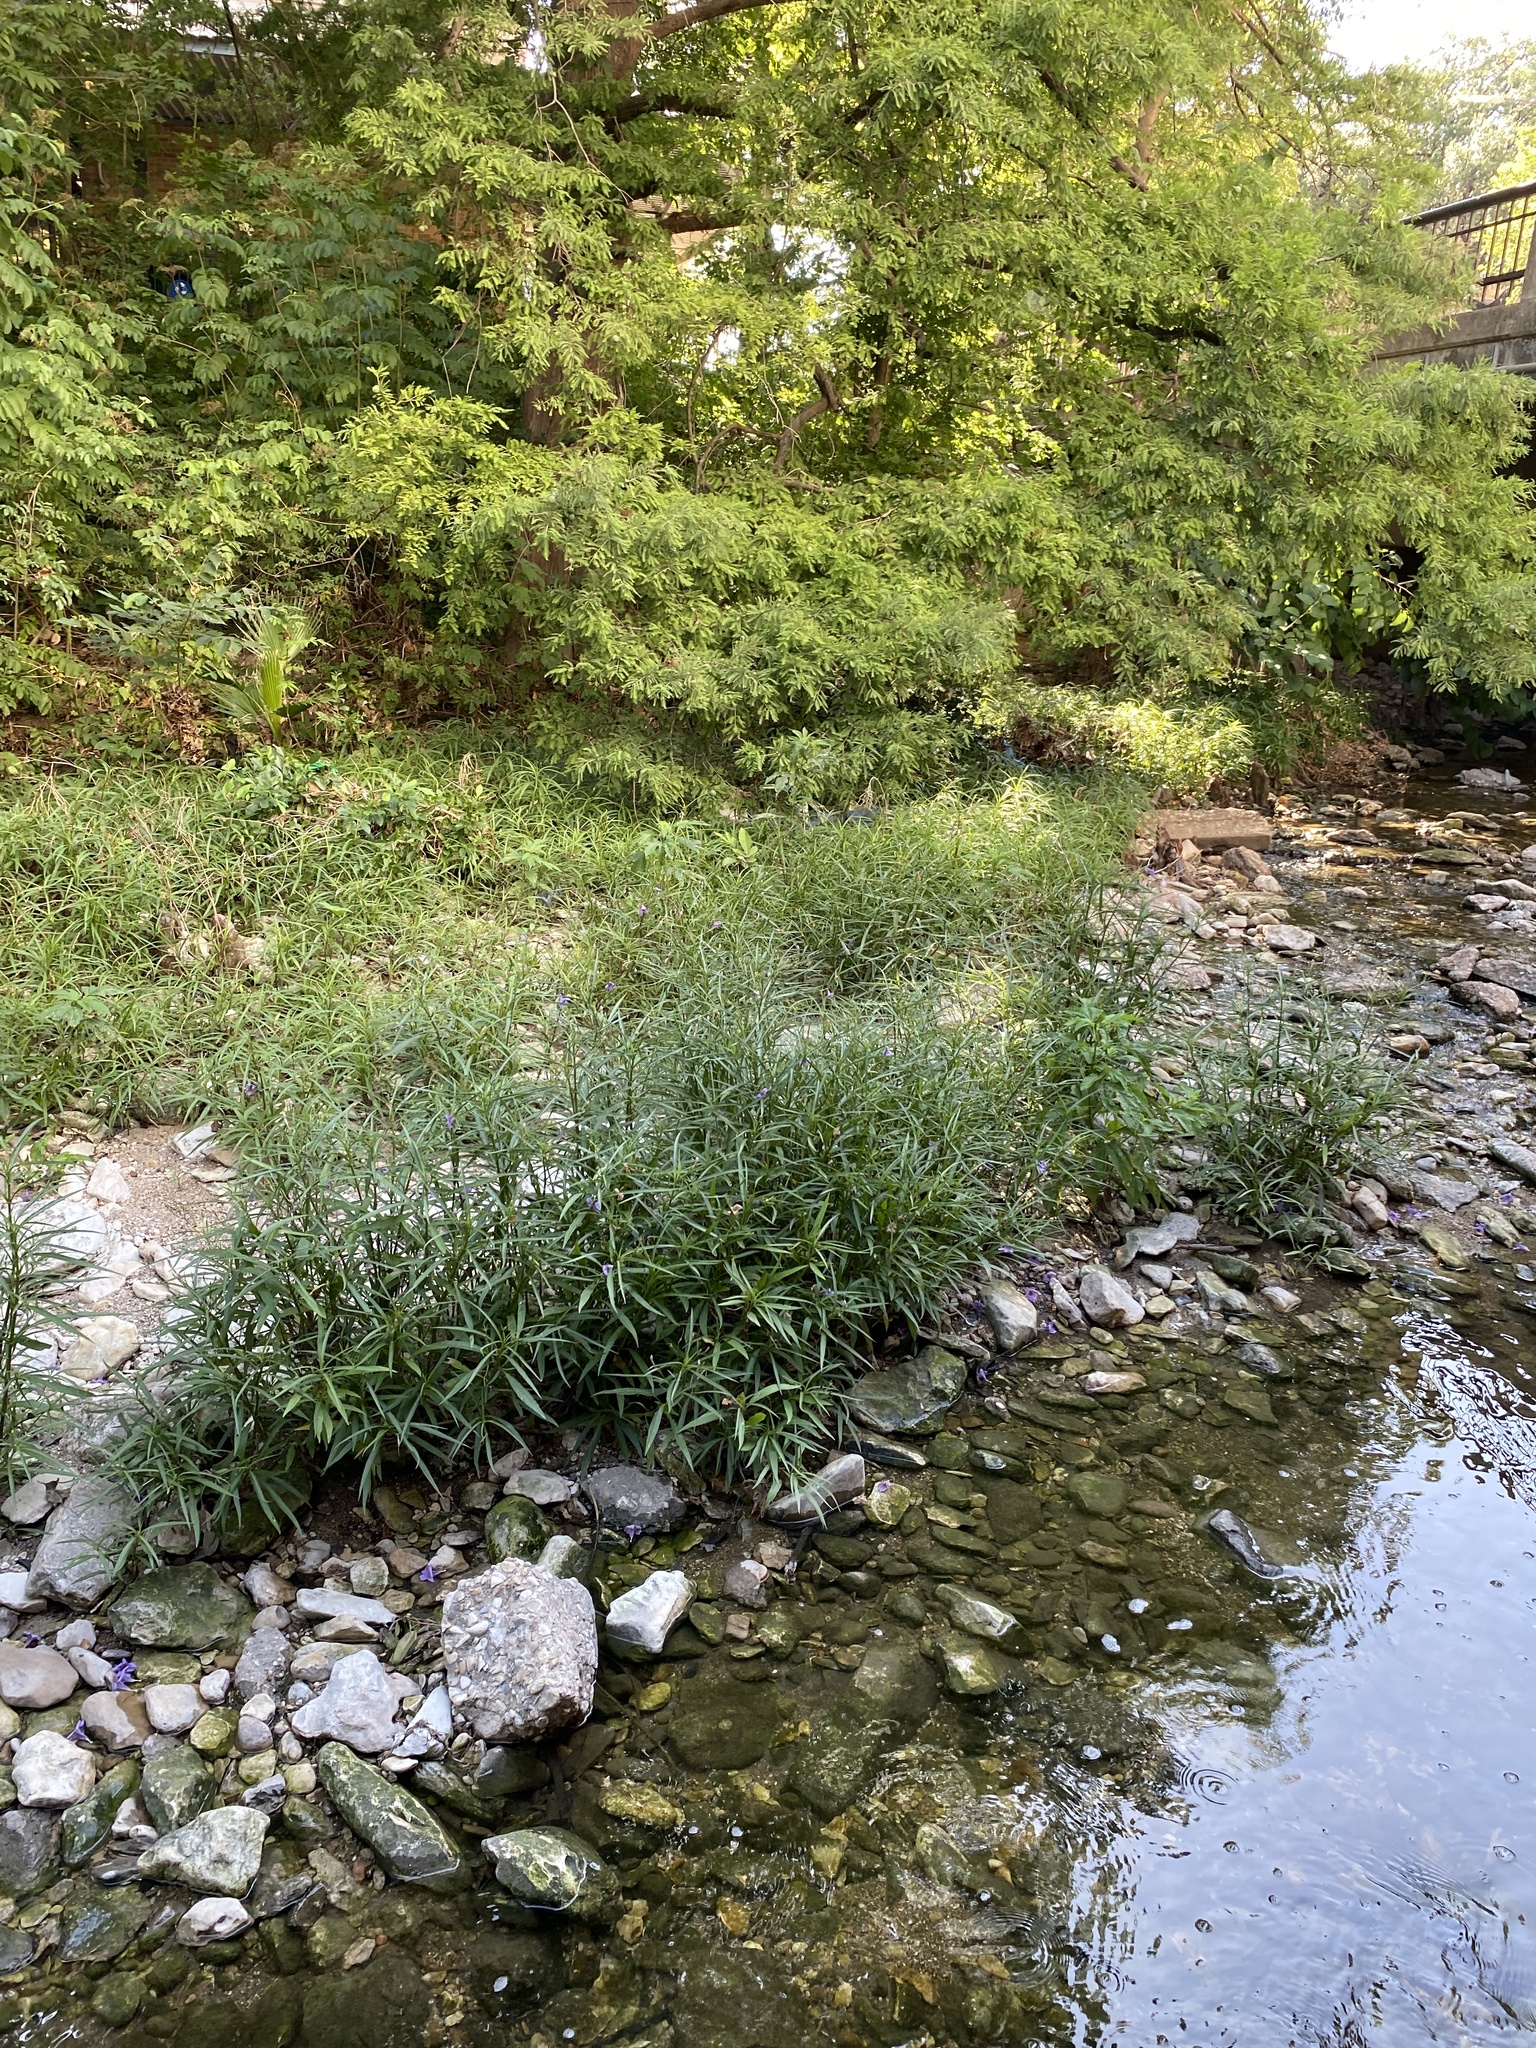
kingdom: Plantae
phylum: Tracheophyta
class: Magnoliopsida
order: Lamiales
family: Acanthaceae
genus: Ruellia
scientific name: Ruellia simplex
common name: Softseed wild petunia
